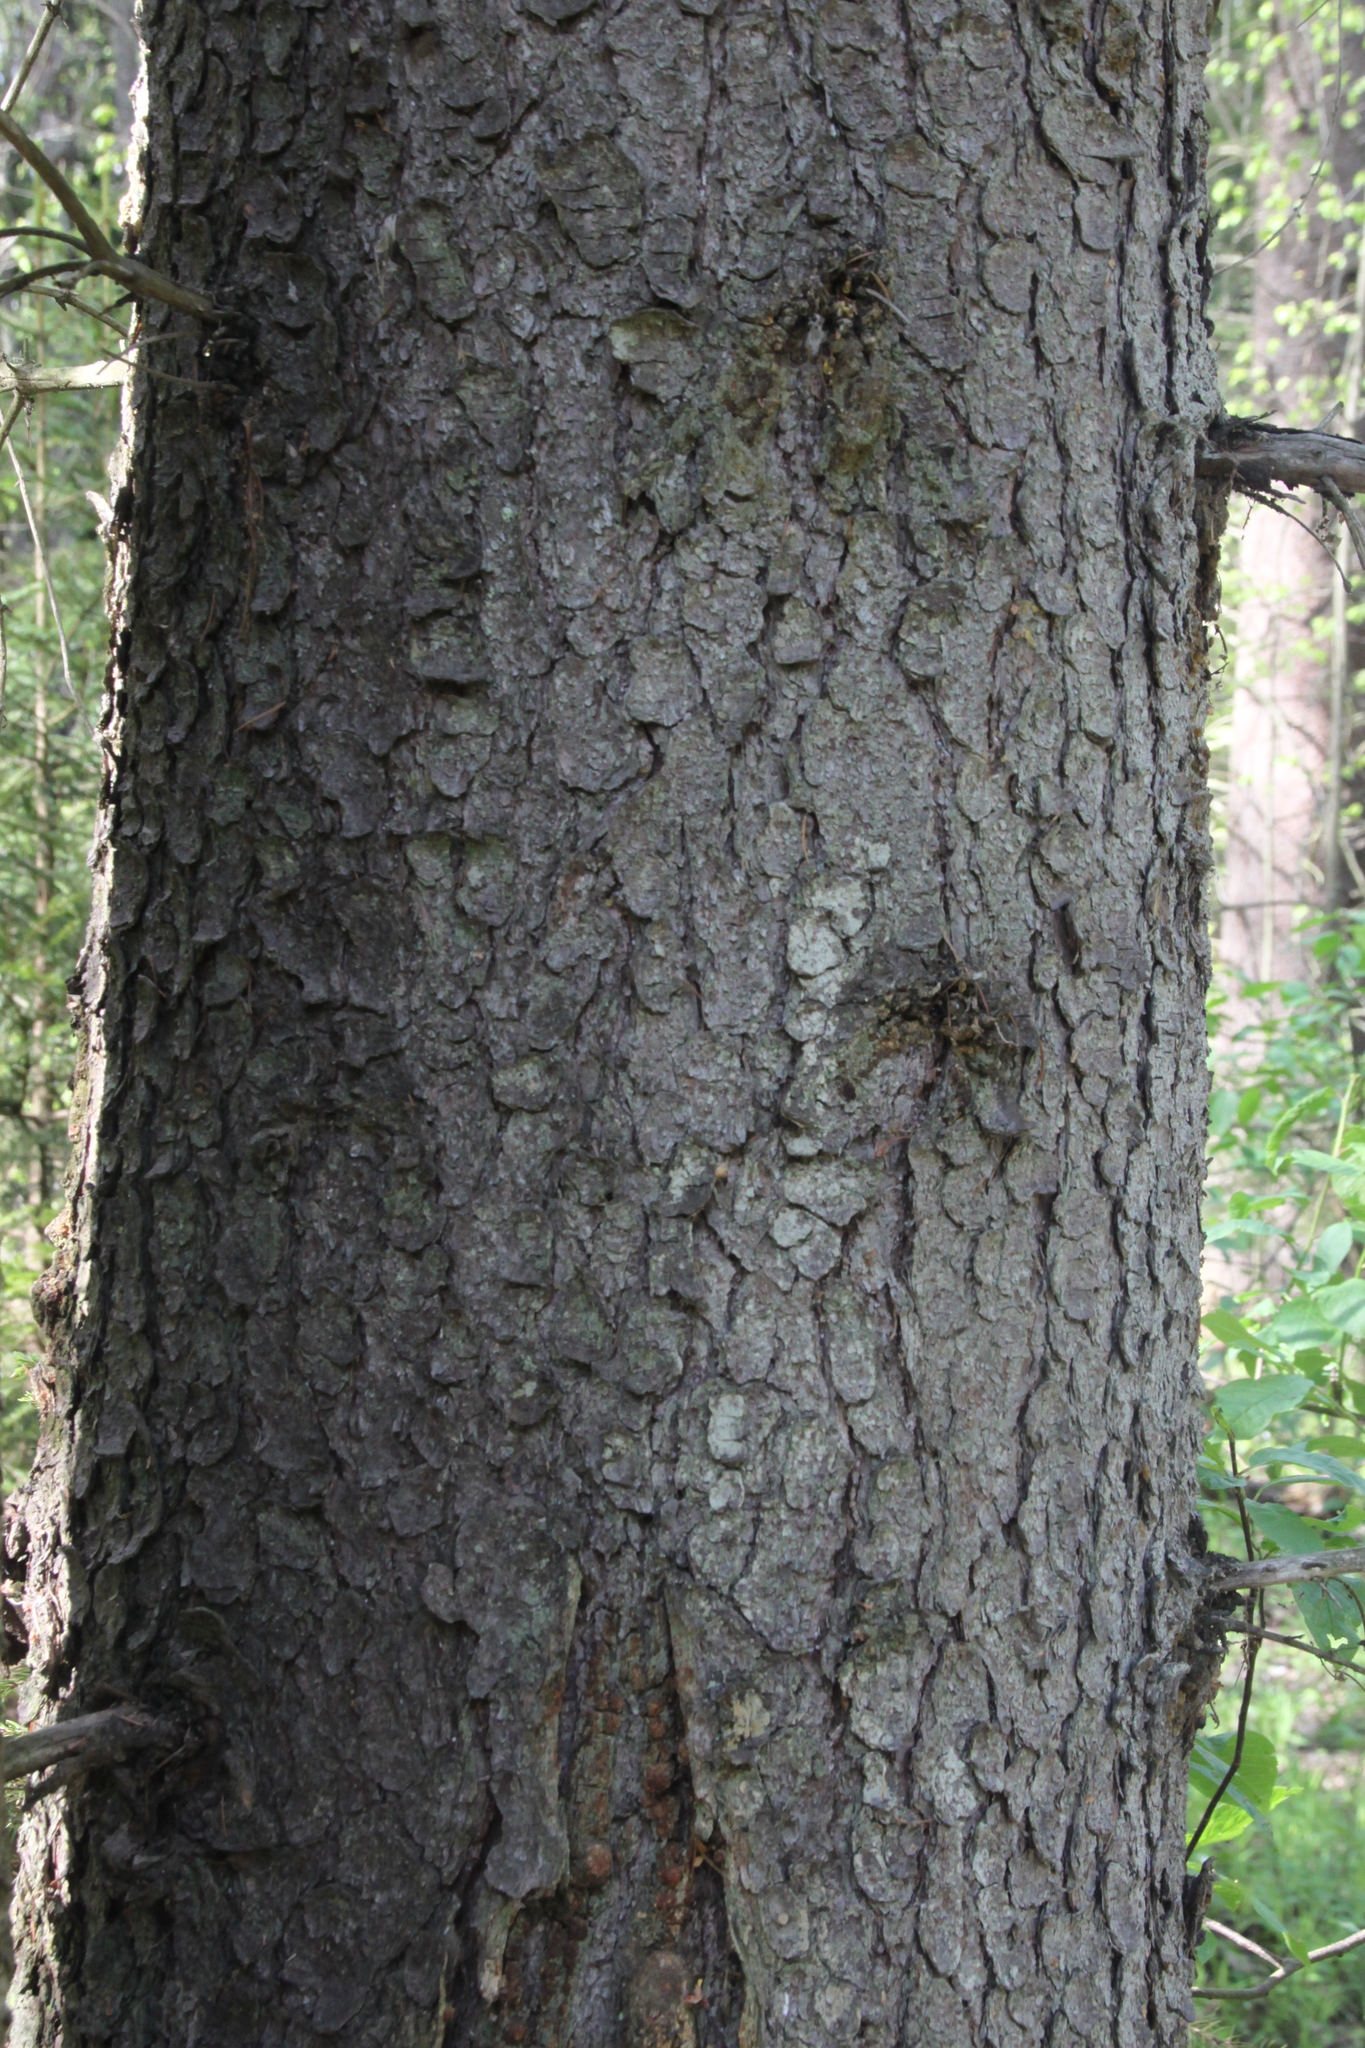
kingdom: Plantae
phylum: Tracheophyta
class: Pinopsida
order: Pinales
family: Pinaceae
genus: Picea
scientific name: Picea abies
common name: Norway spruce
